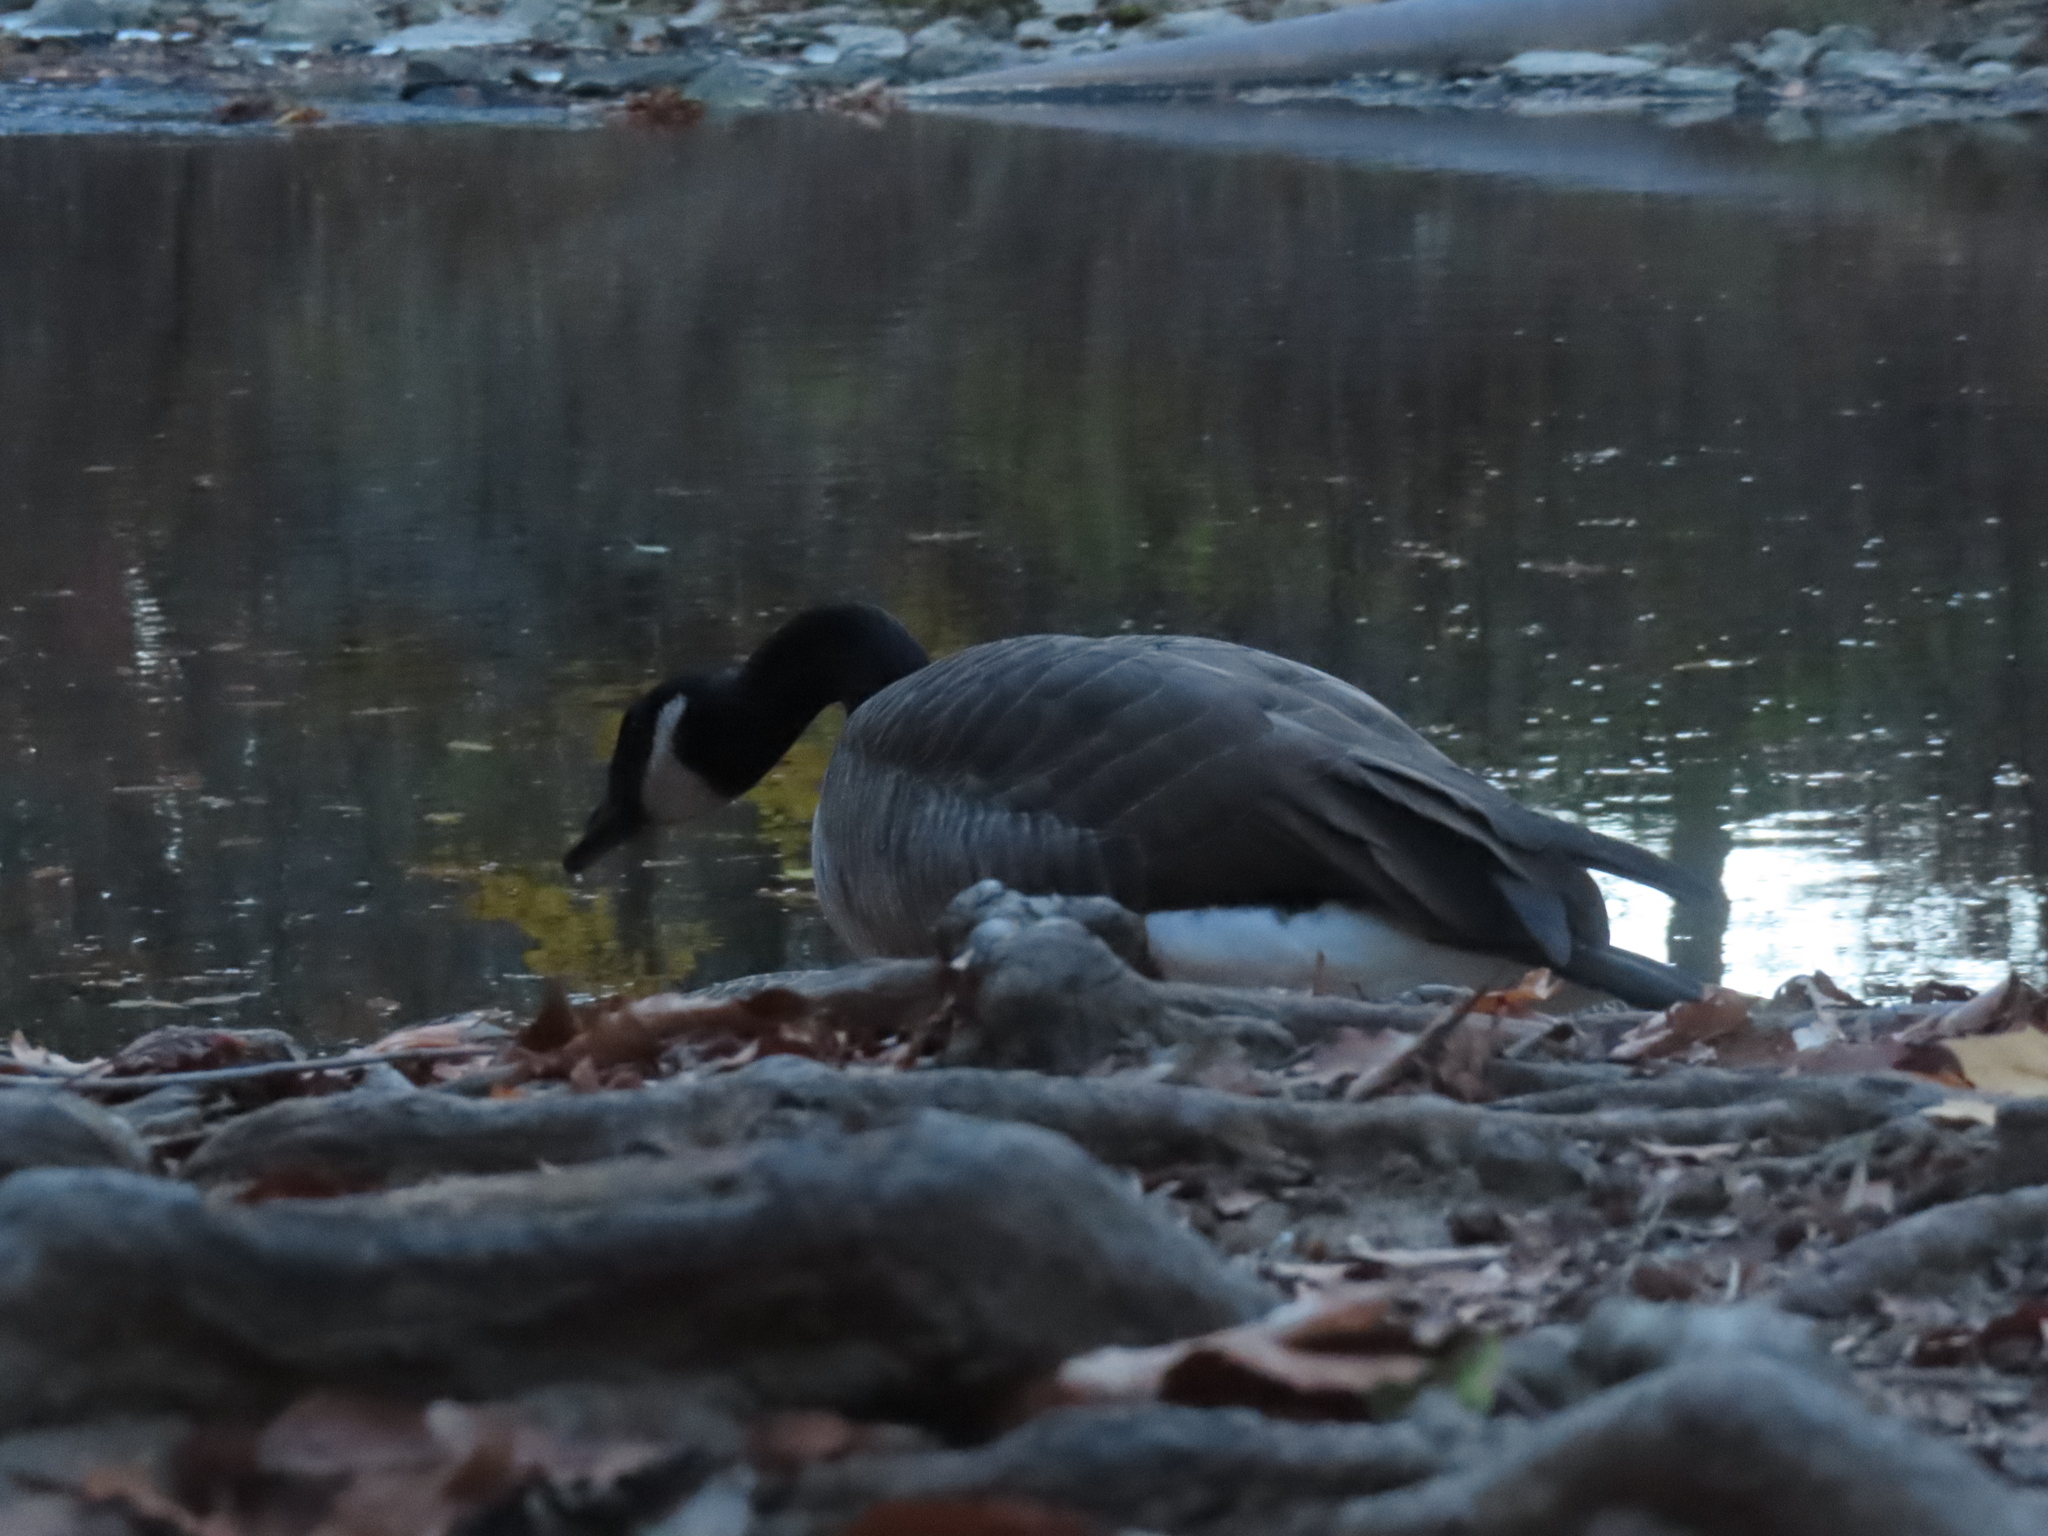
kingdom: Animalia
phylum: Chordata
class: Aves
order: Anseriformes
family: Anatidae
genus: Branta
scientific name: Branta canadensis
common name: Canada goose
